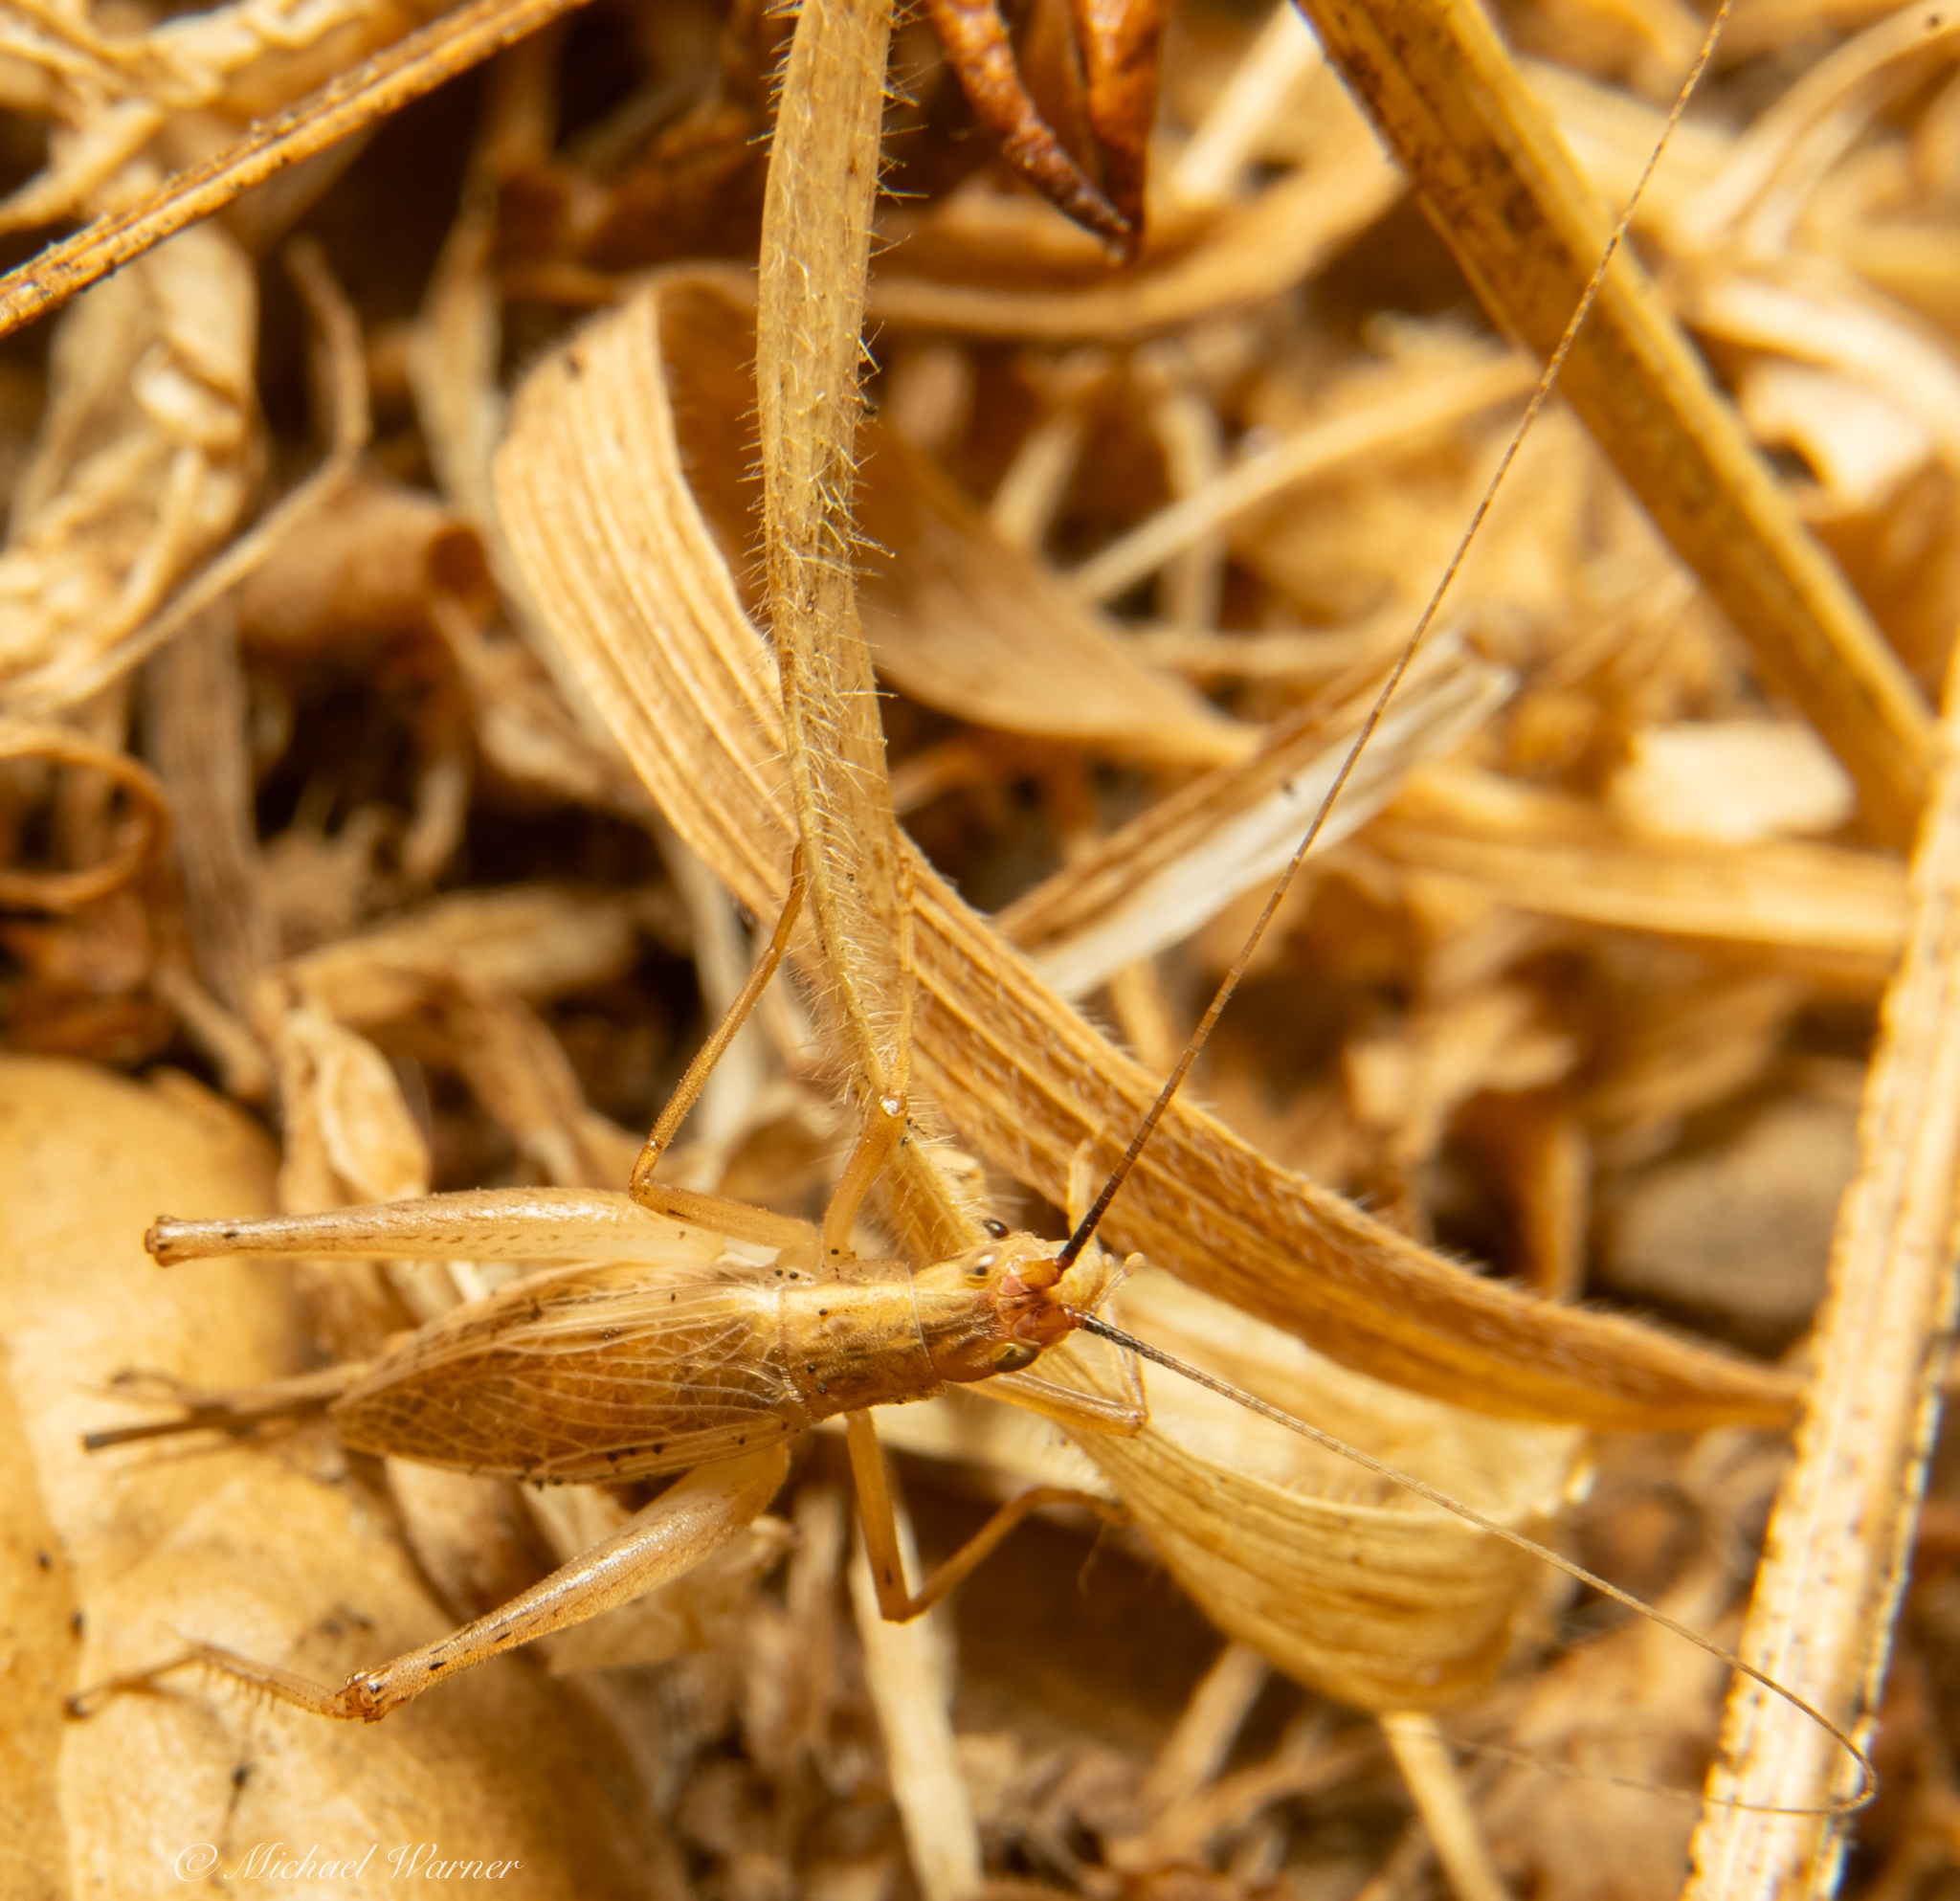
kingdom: Animalia
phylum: Arthropoda
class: Insecta
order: Orthoptera
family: Gryllidae
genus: Oecanthus
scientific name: Oecanthus californicus
